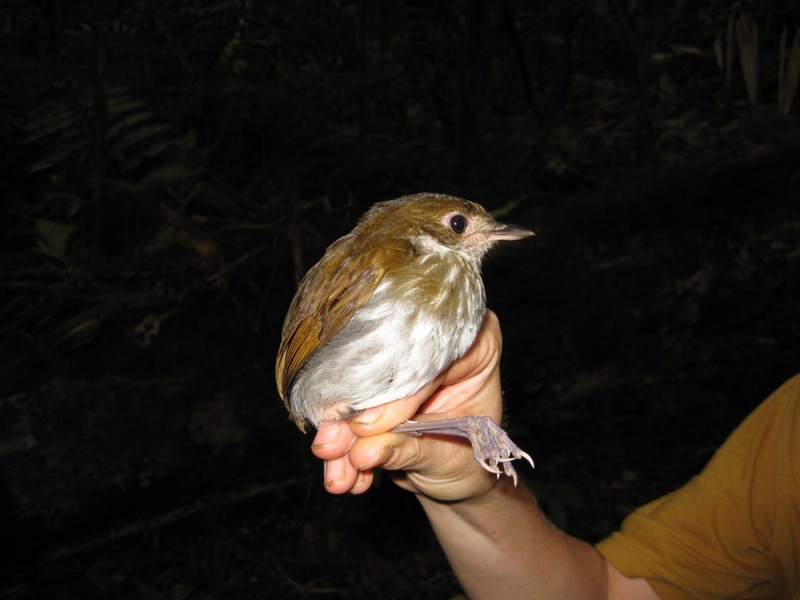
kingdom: Animalia
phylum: Chordata
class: Aves
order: Passeriformes
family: Grallariidae
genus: Myrmothera
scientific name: Myrmothera campanisona
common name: Thrush-like antpitta
